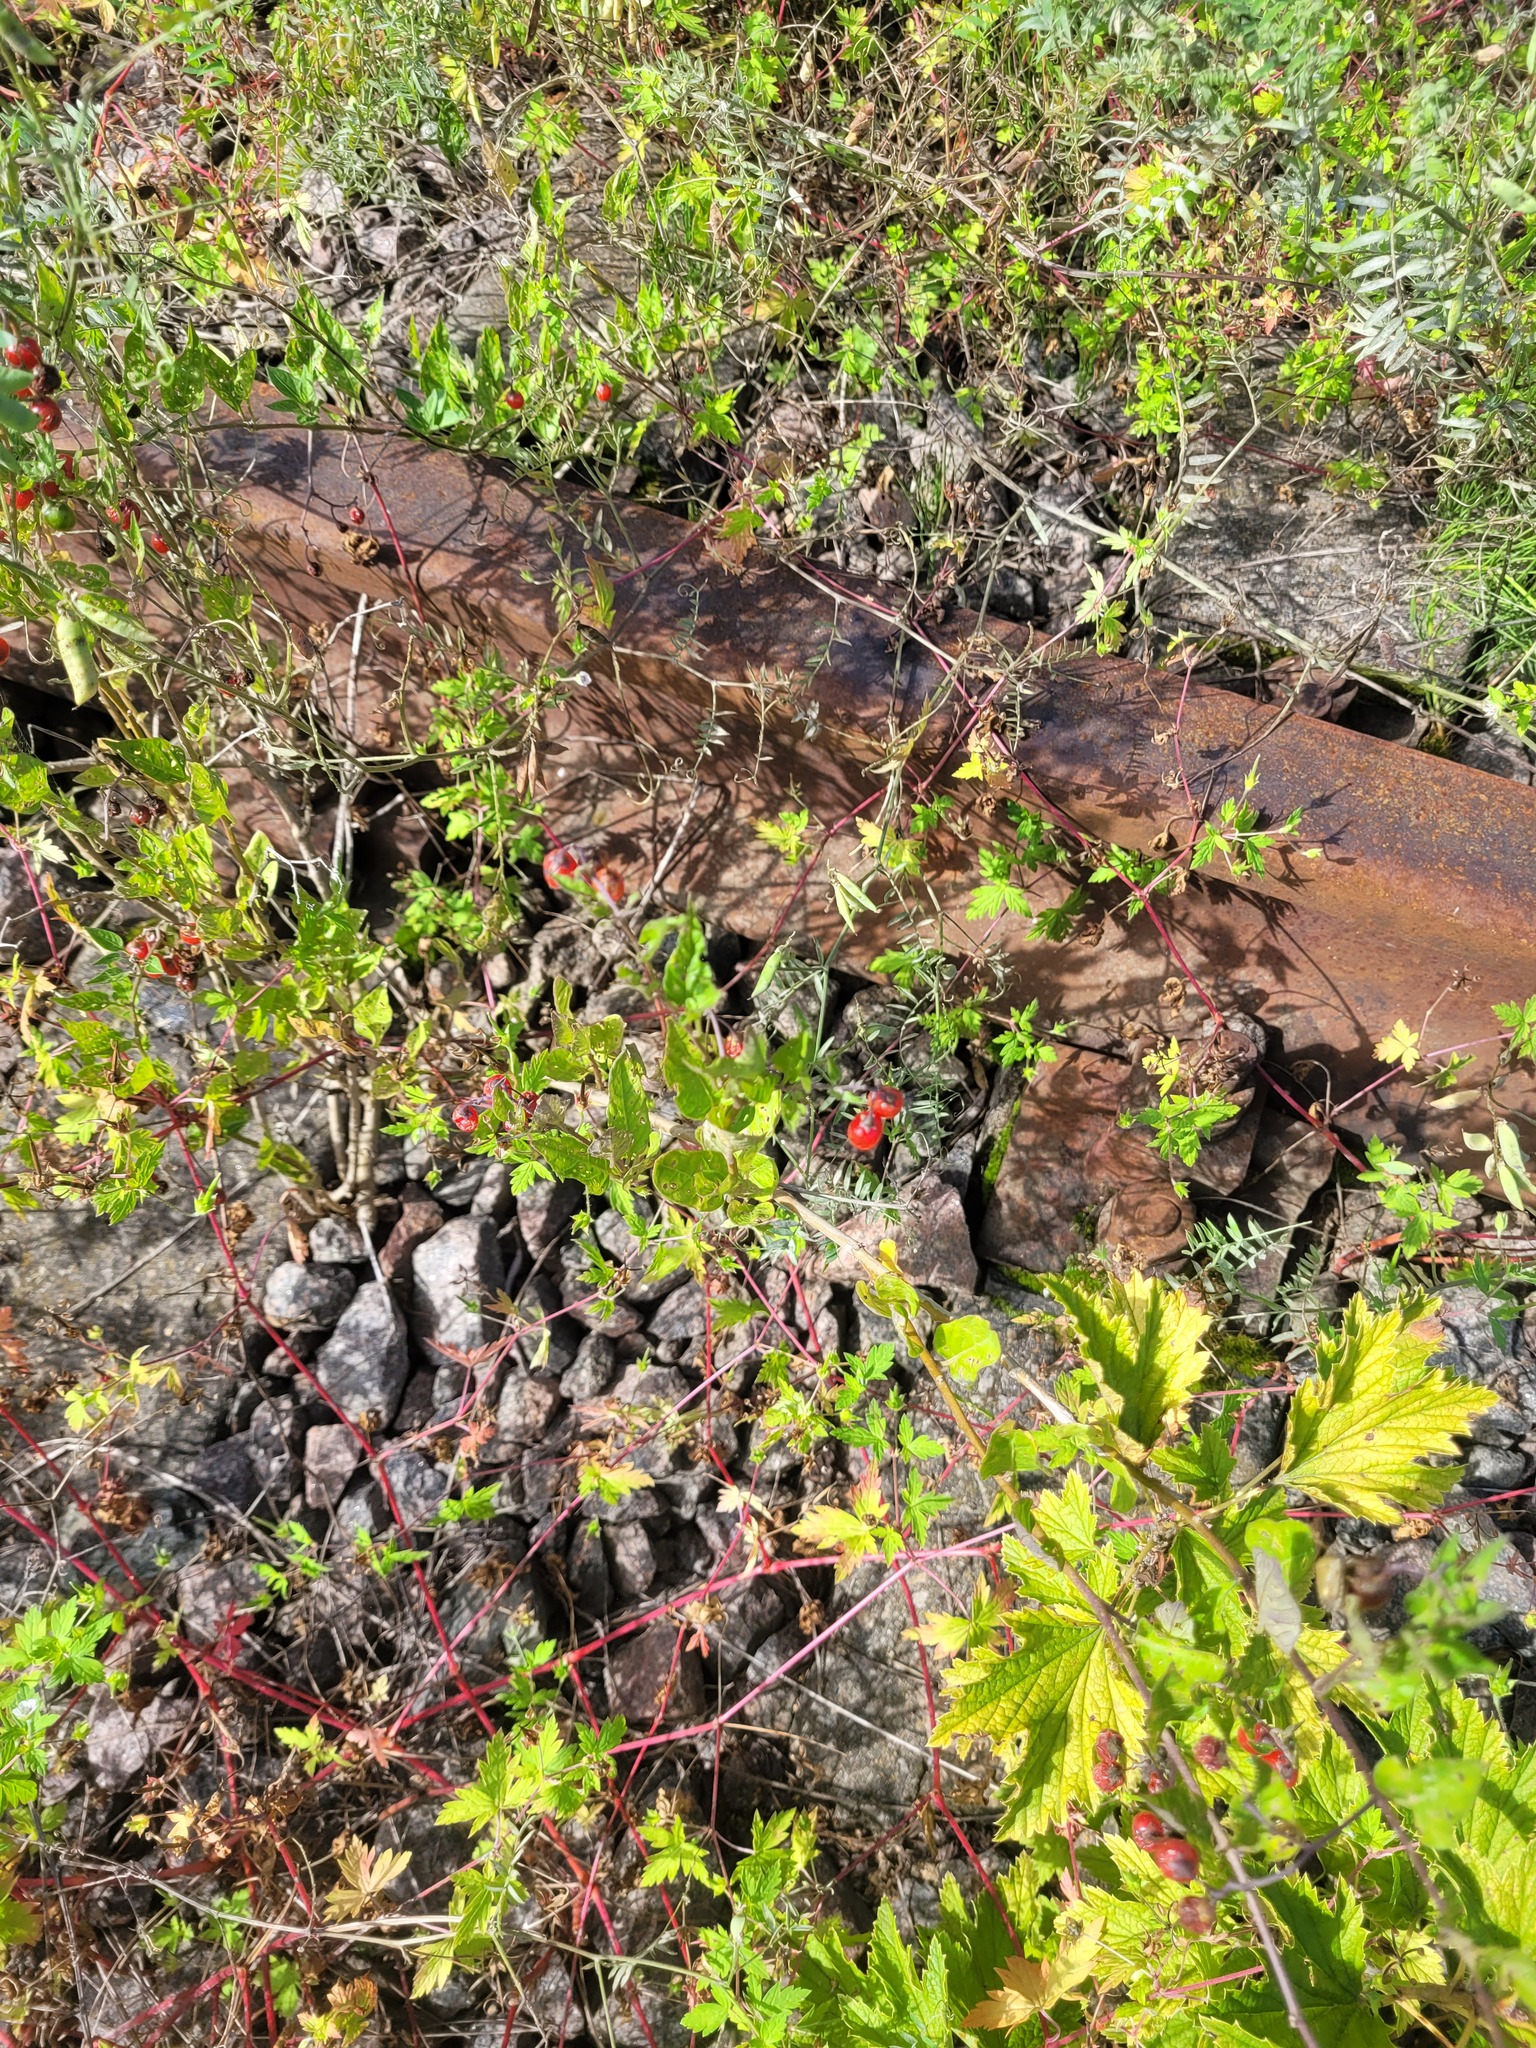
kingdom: Plantae
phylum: Tracheophyta
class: Magnoliopsida
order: Solanales
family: Solanaceae
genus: Solanum
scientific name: Solanum dulcamara
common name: Climbing nightshade
